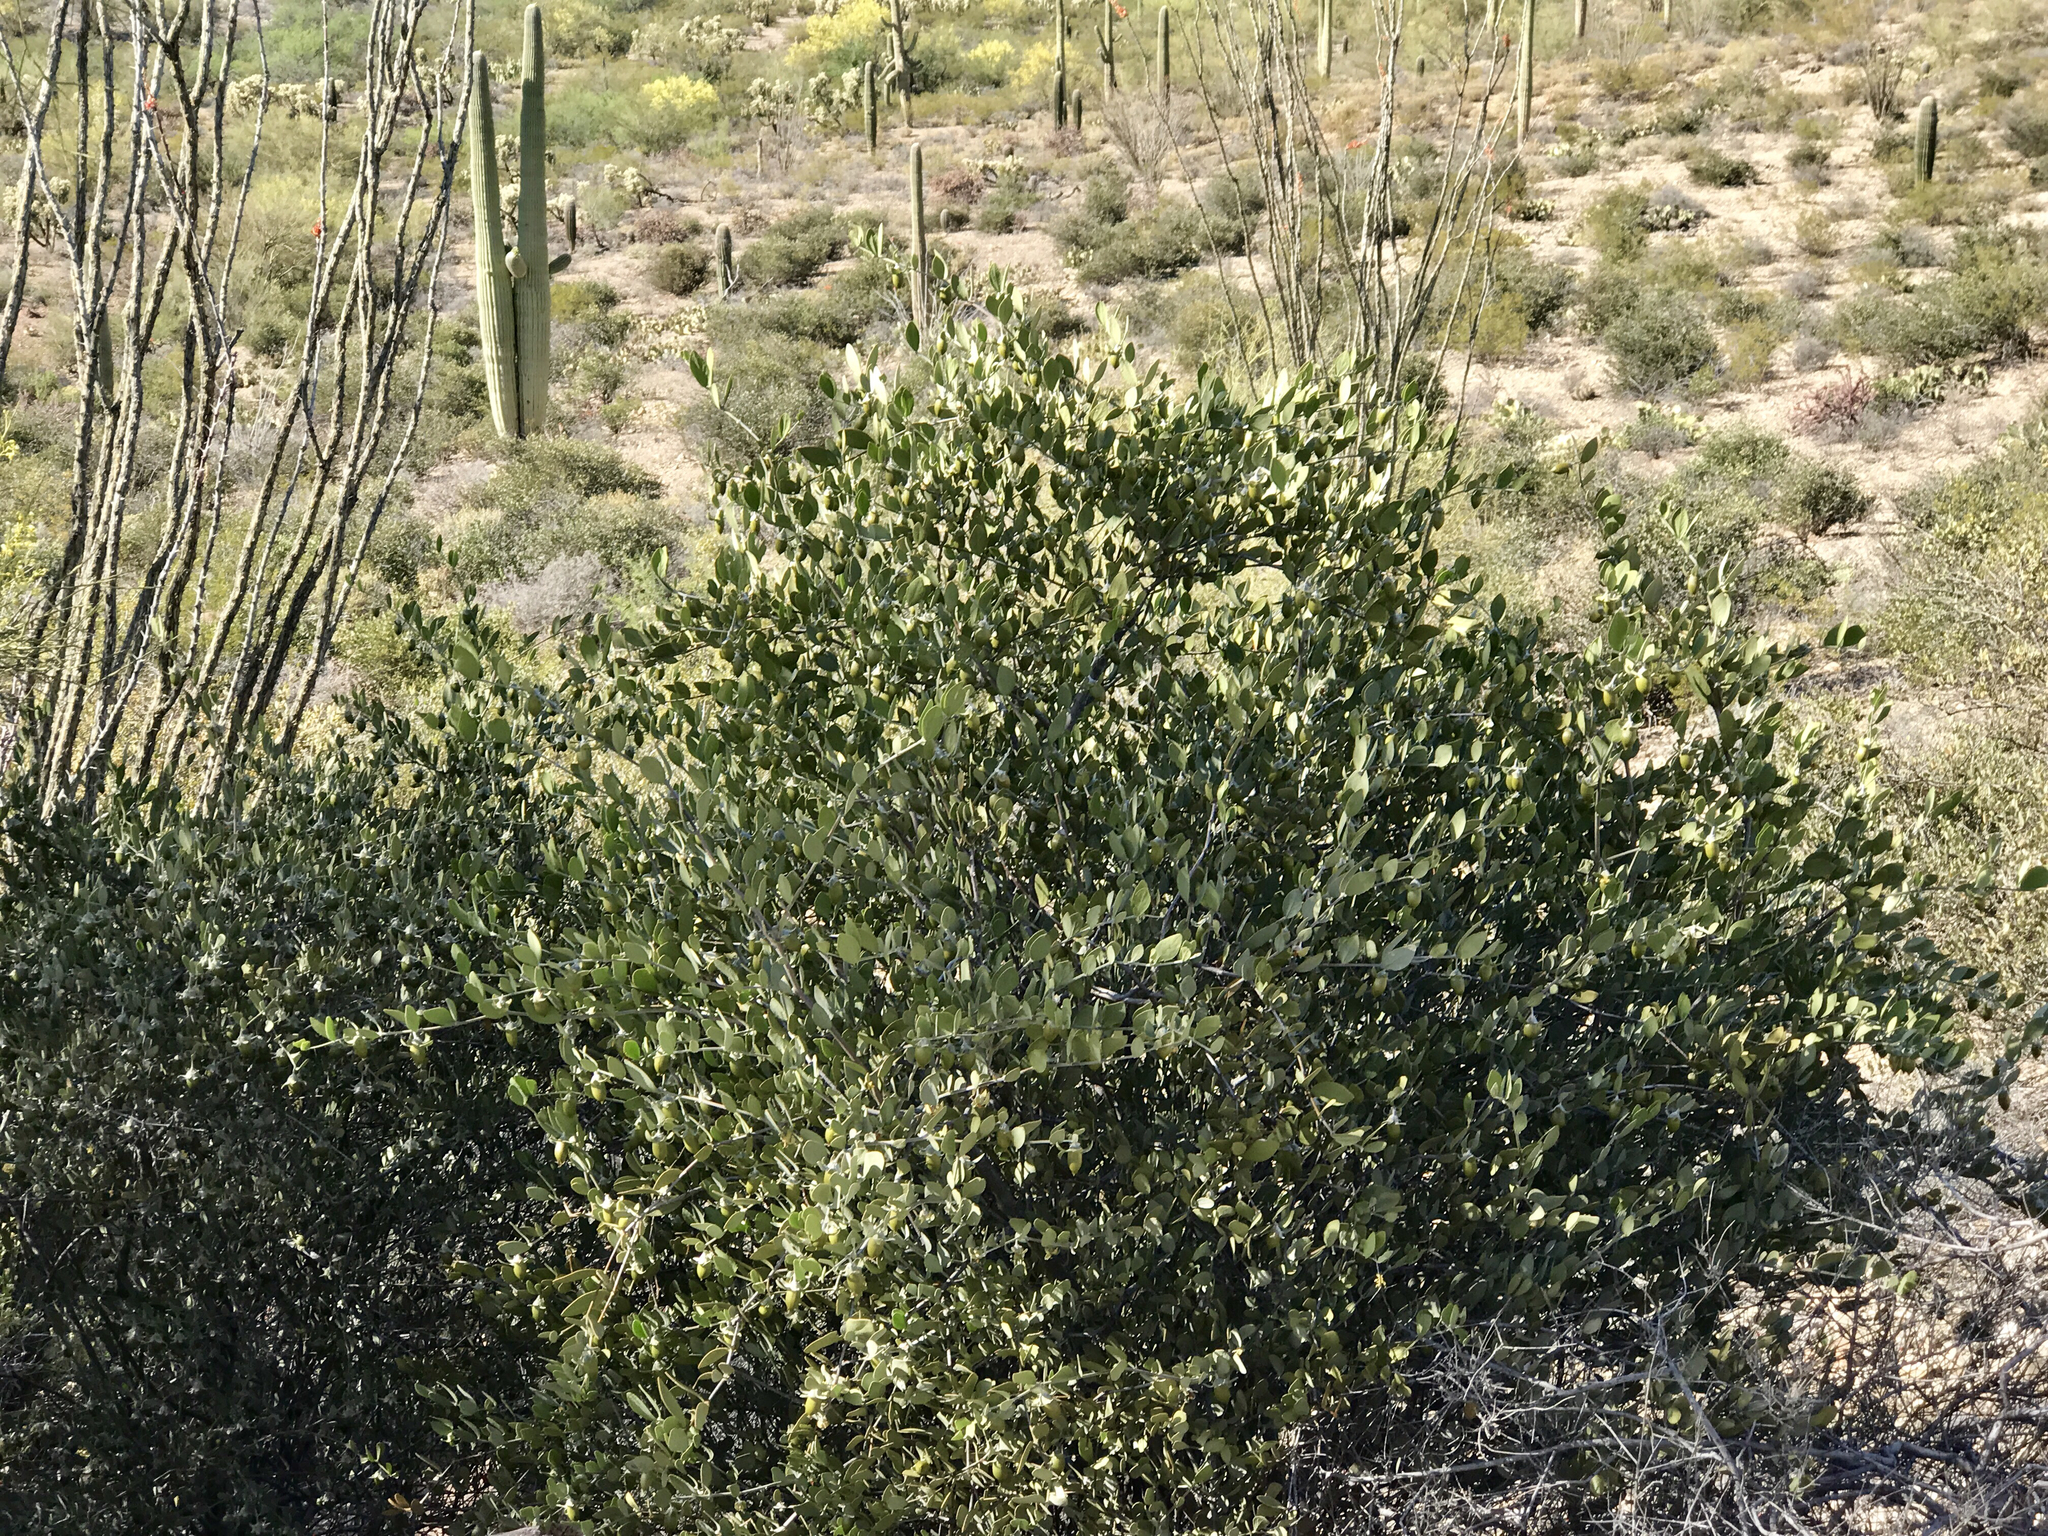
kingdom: Plantae
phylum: Tracheophyta
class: Magnoliopsida
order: Caryophyllales
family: Simmondsiaceae
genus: Simmondsia
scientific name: Simmondsia chinensis
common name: Jojoba
